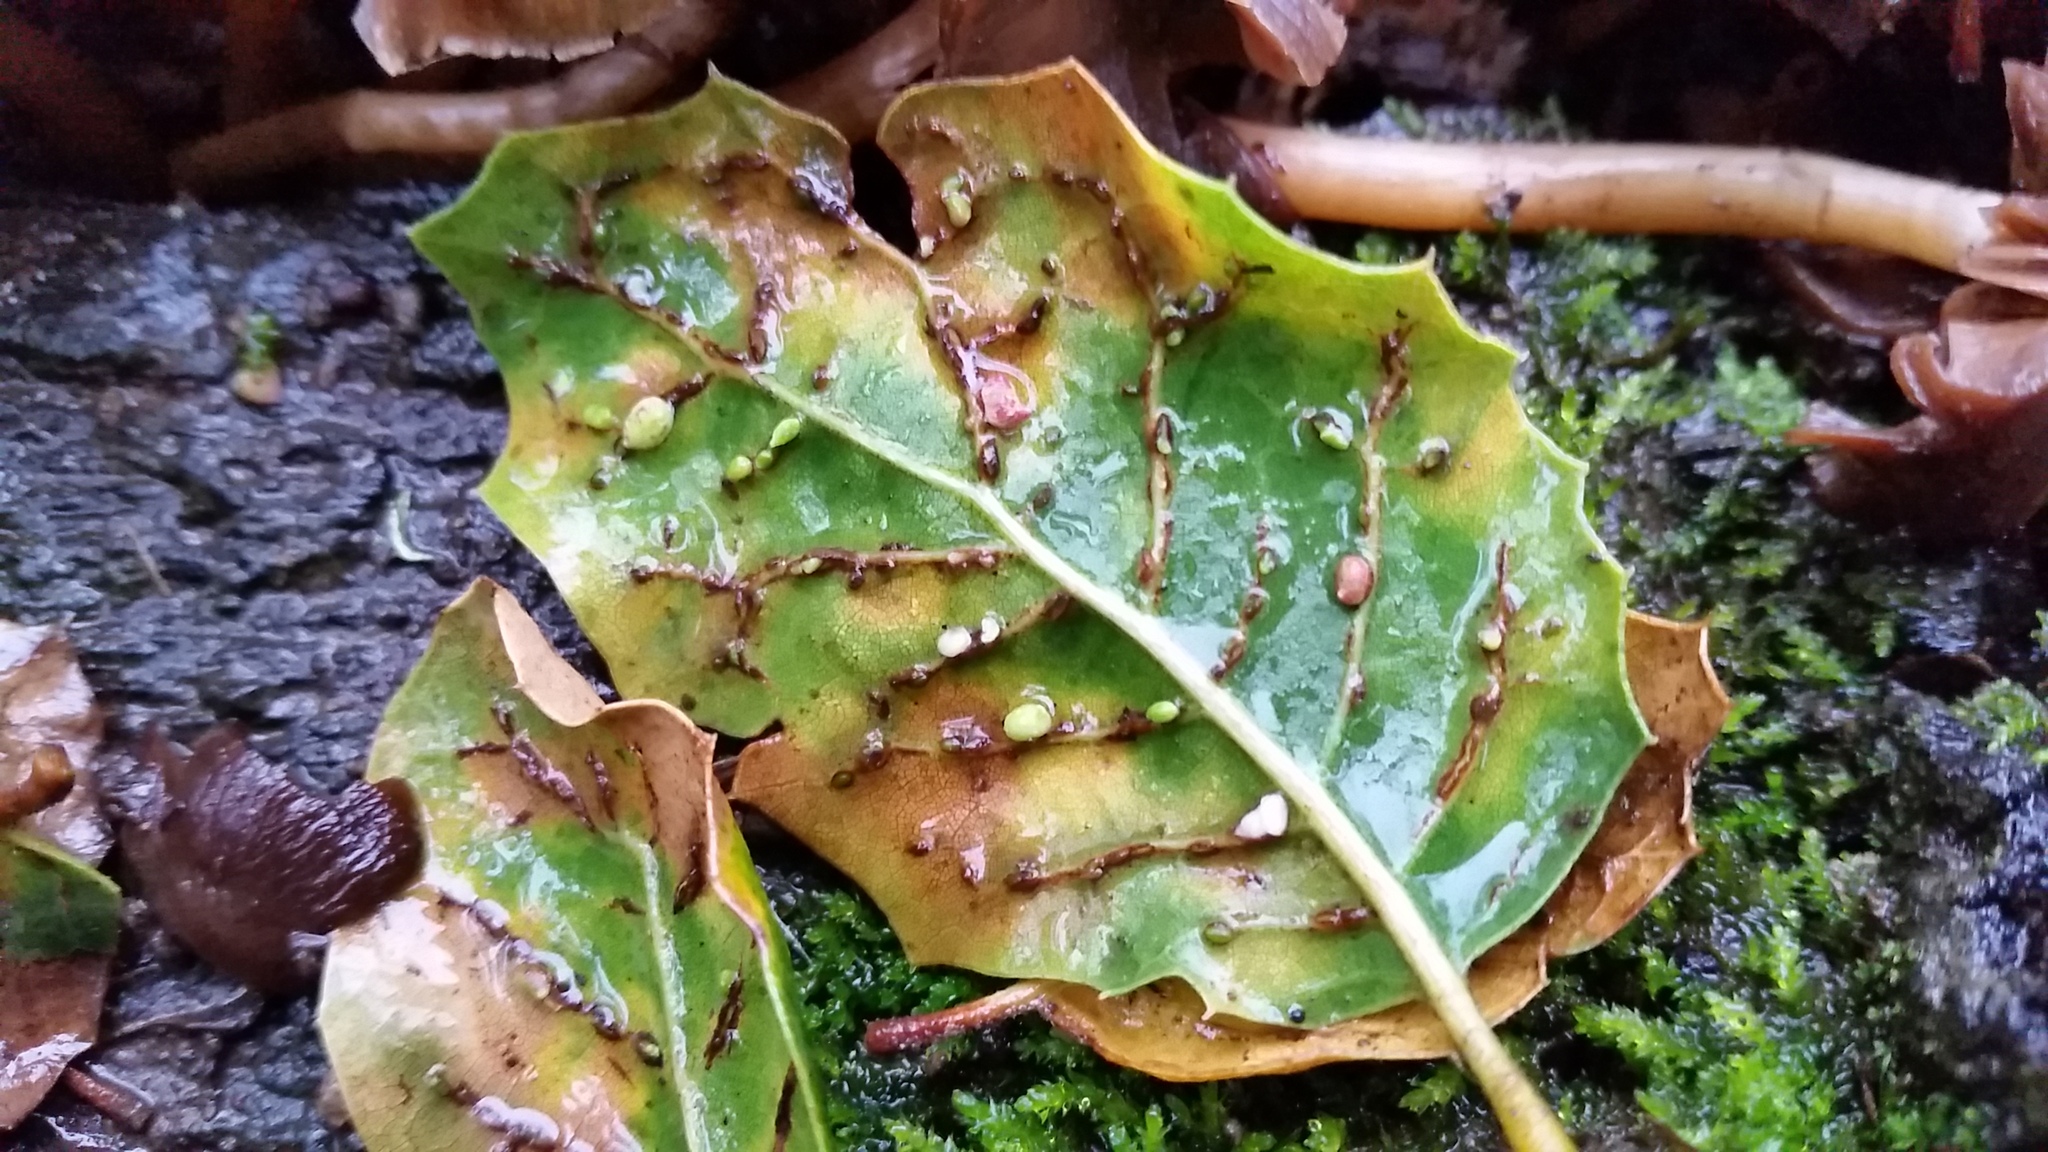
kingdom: Animalia
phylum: Arthropoda
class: Insecta
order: Hymenoptera
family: Cynipidae
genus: Dryocosmus
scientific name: Dryocosmus
